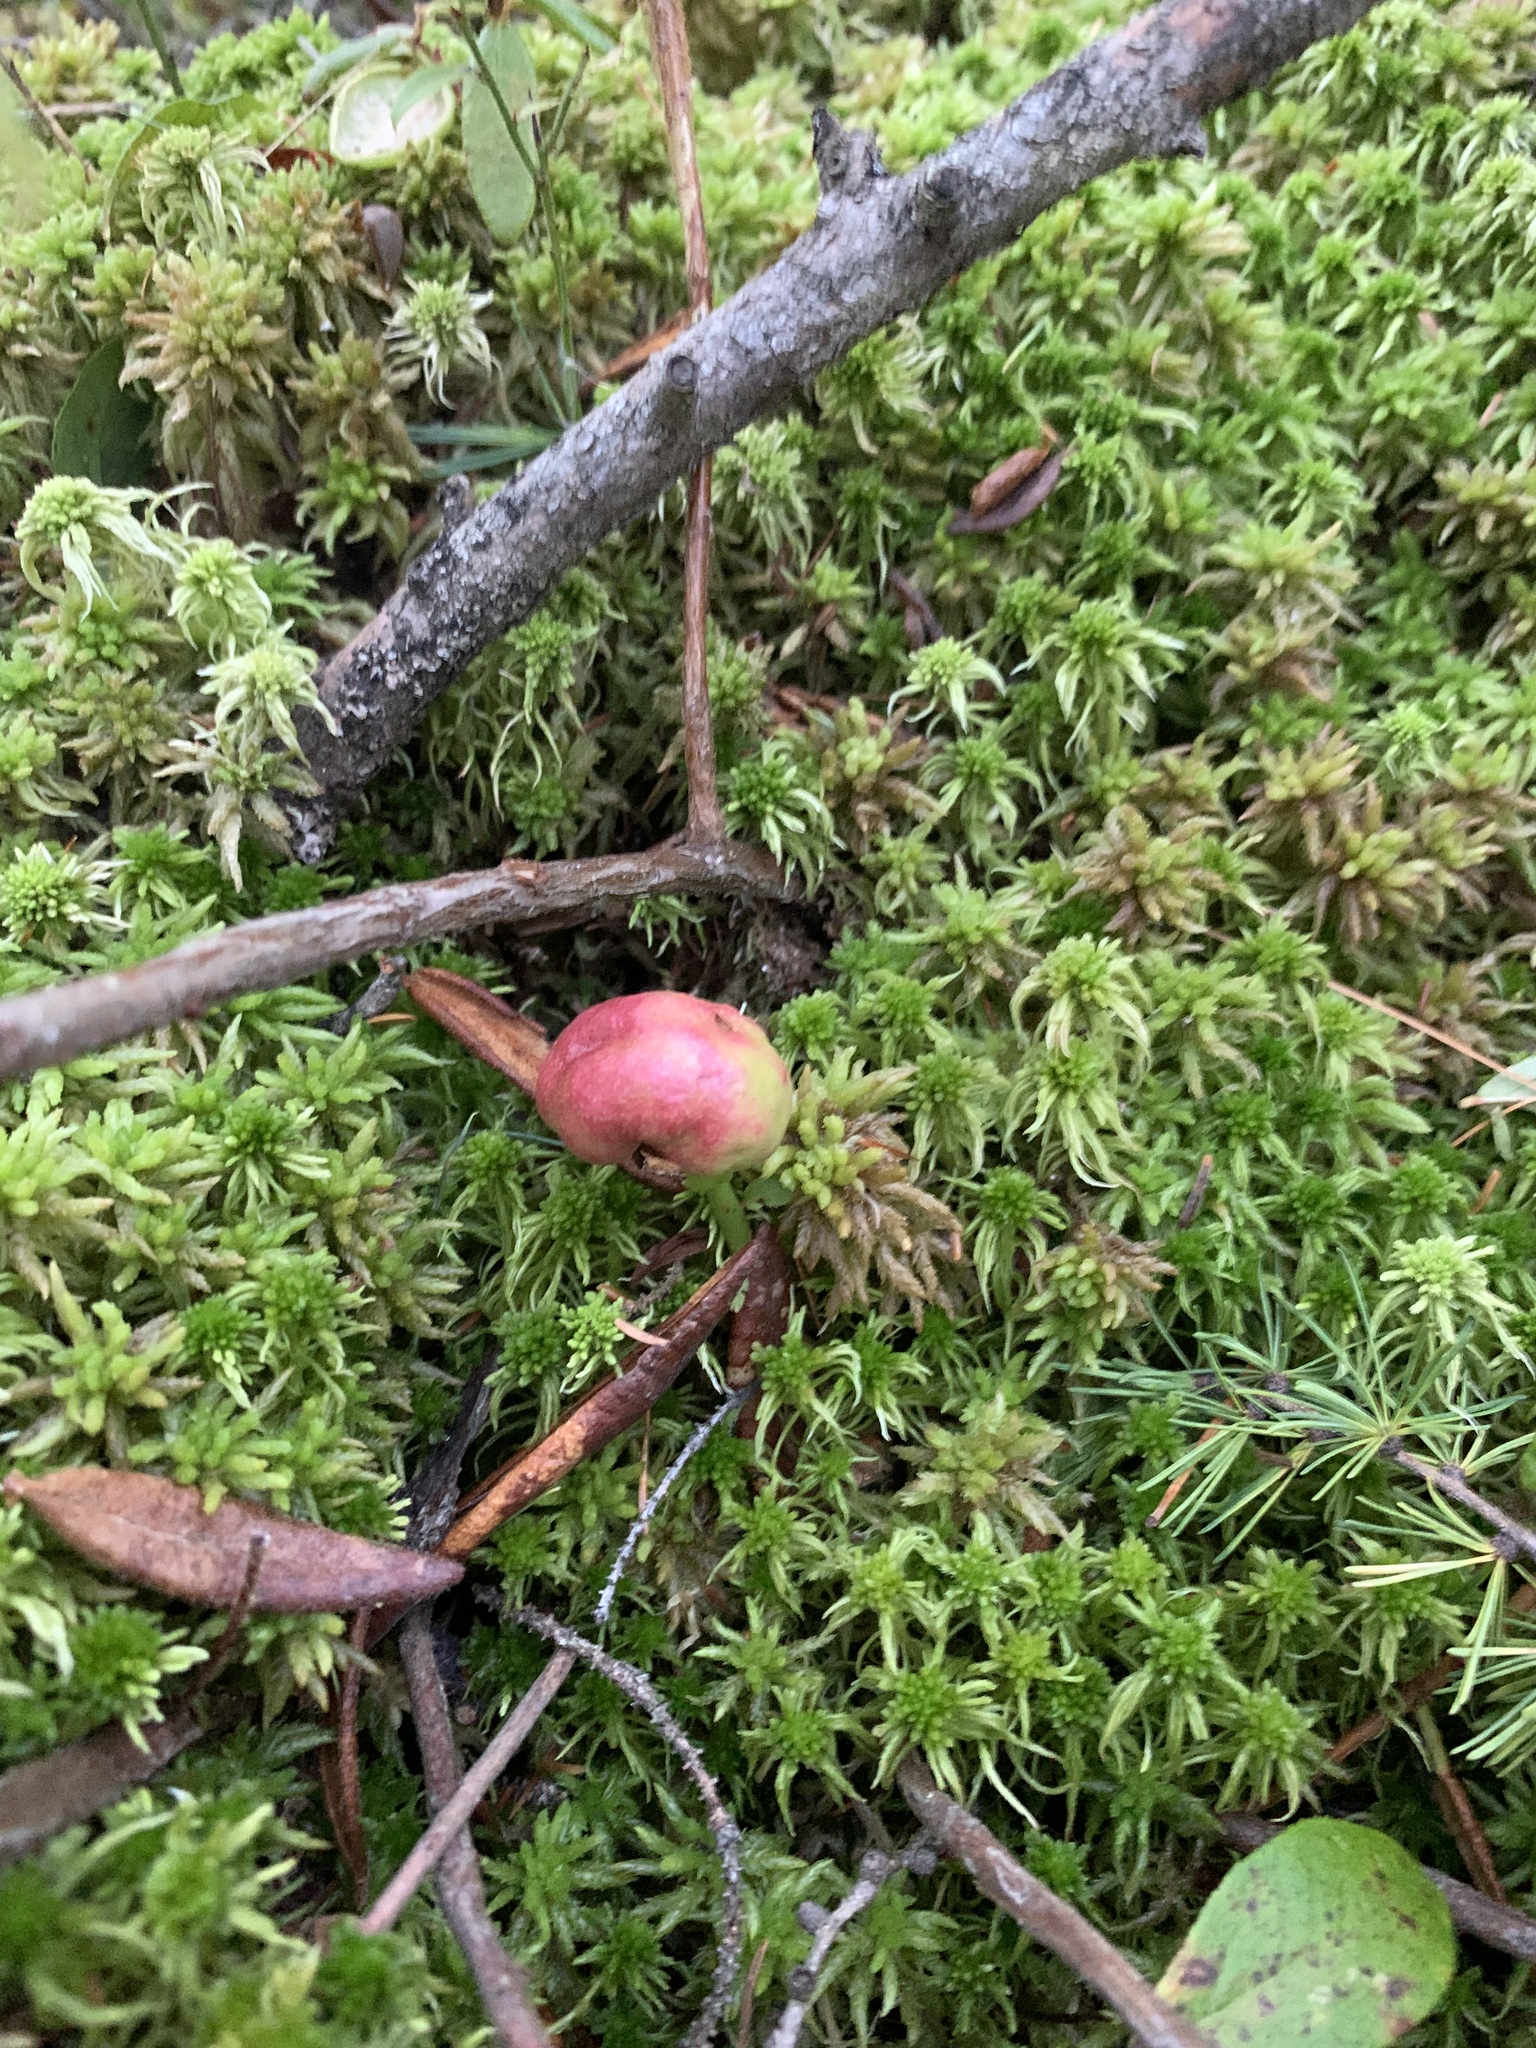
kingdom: Animalia
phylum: Arthropoda
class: Insecta
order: Hymenoptera
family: Pteromalidae
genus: Hemadas
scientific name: Hemadas nubilipennis
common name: Blueberry stem gall wasp
